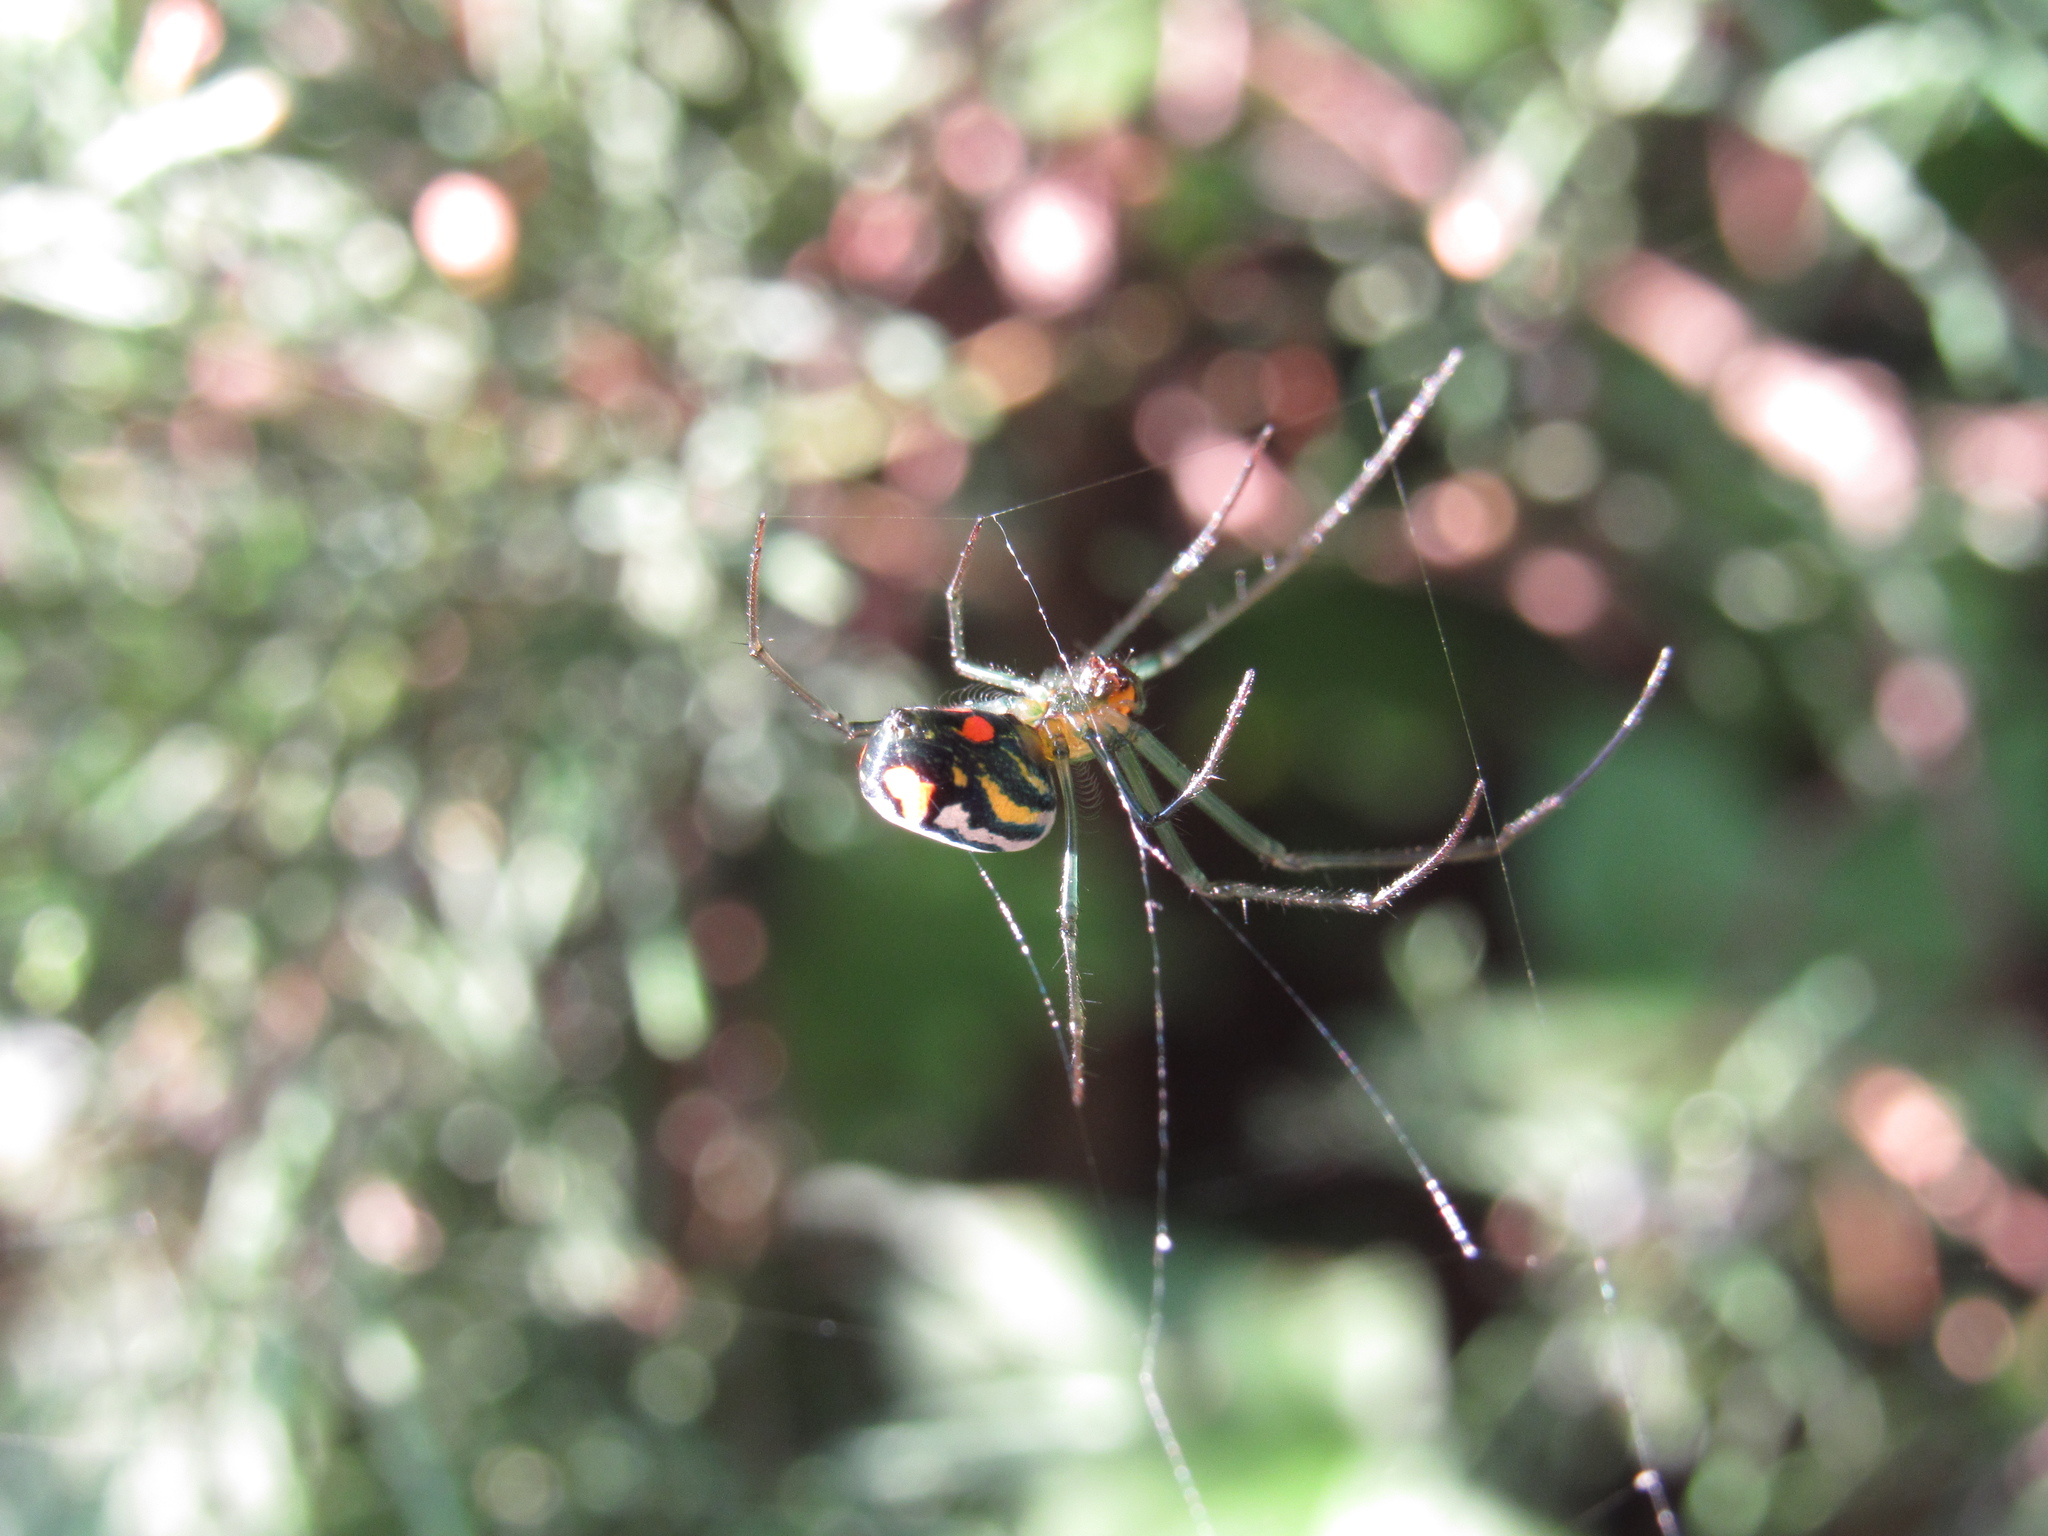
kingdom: Animalia
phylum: Arthropoda
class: Arachnida
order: Araneae
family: Tetragnathidae
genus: Leucauge
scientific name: Leucauge argyrobapta
